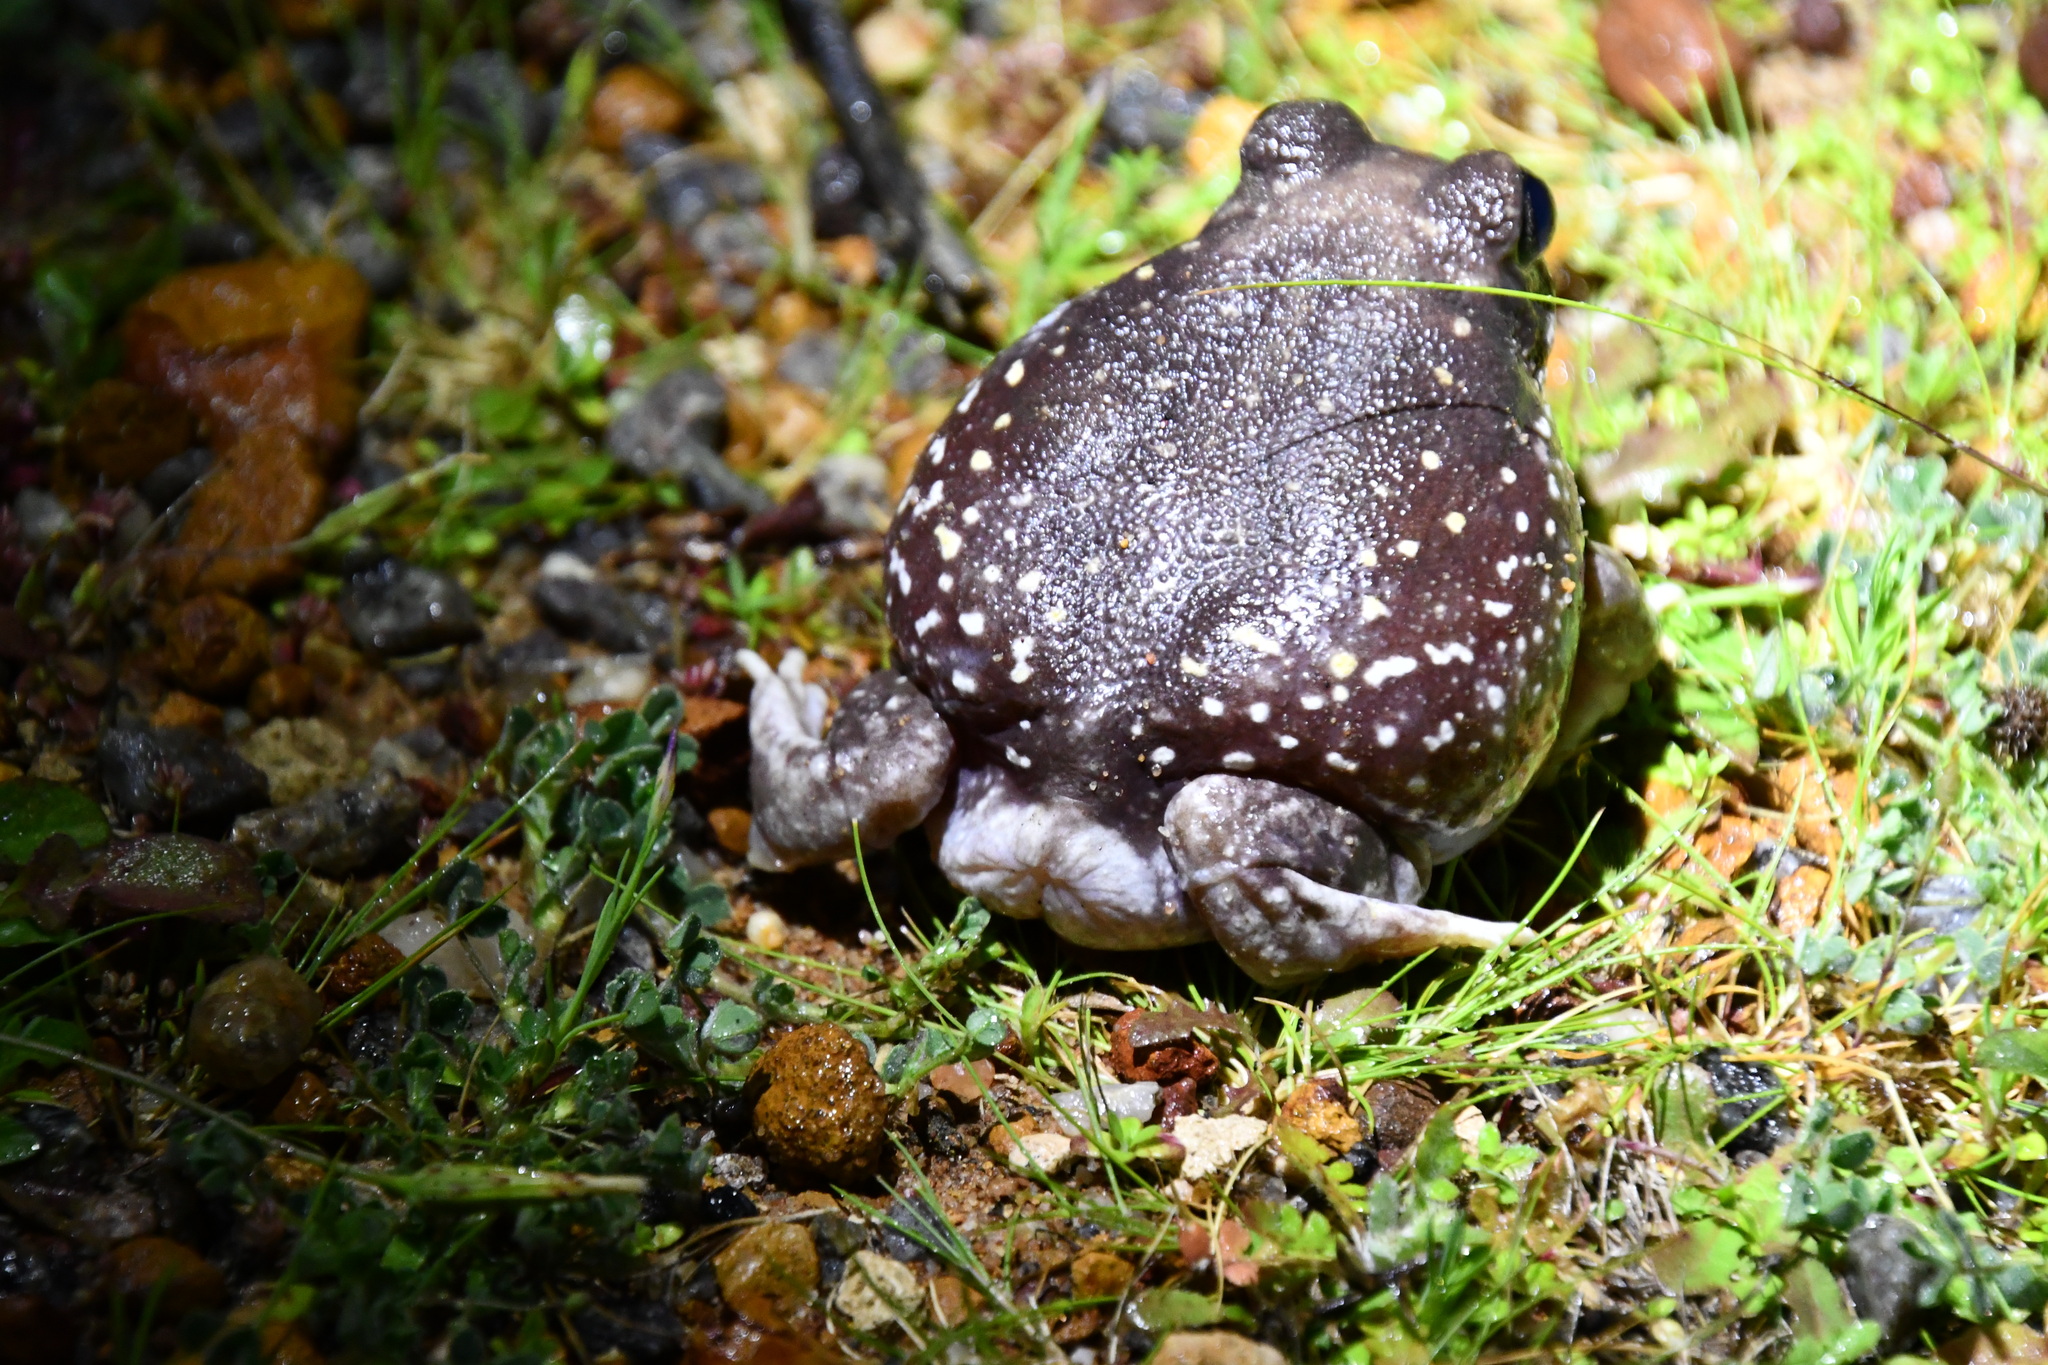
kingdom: Animalia
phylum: Chordata
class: Amphibia
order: Anura
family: Limnodynastidae
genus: Heleioporus
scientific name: Heleioporus albopunctatus
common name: Western spotted frog
